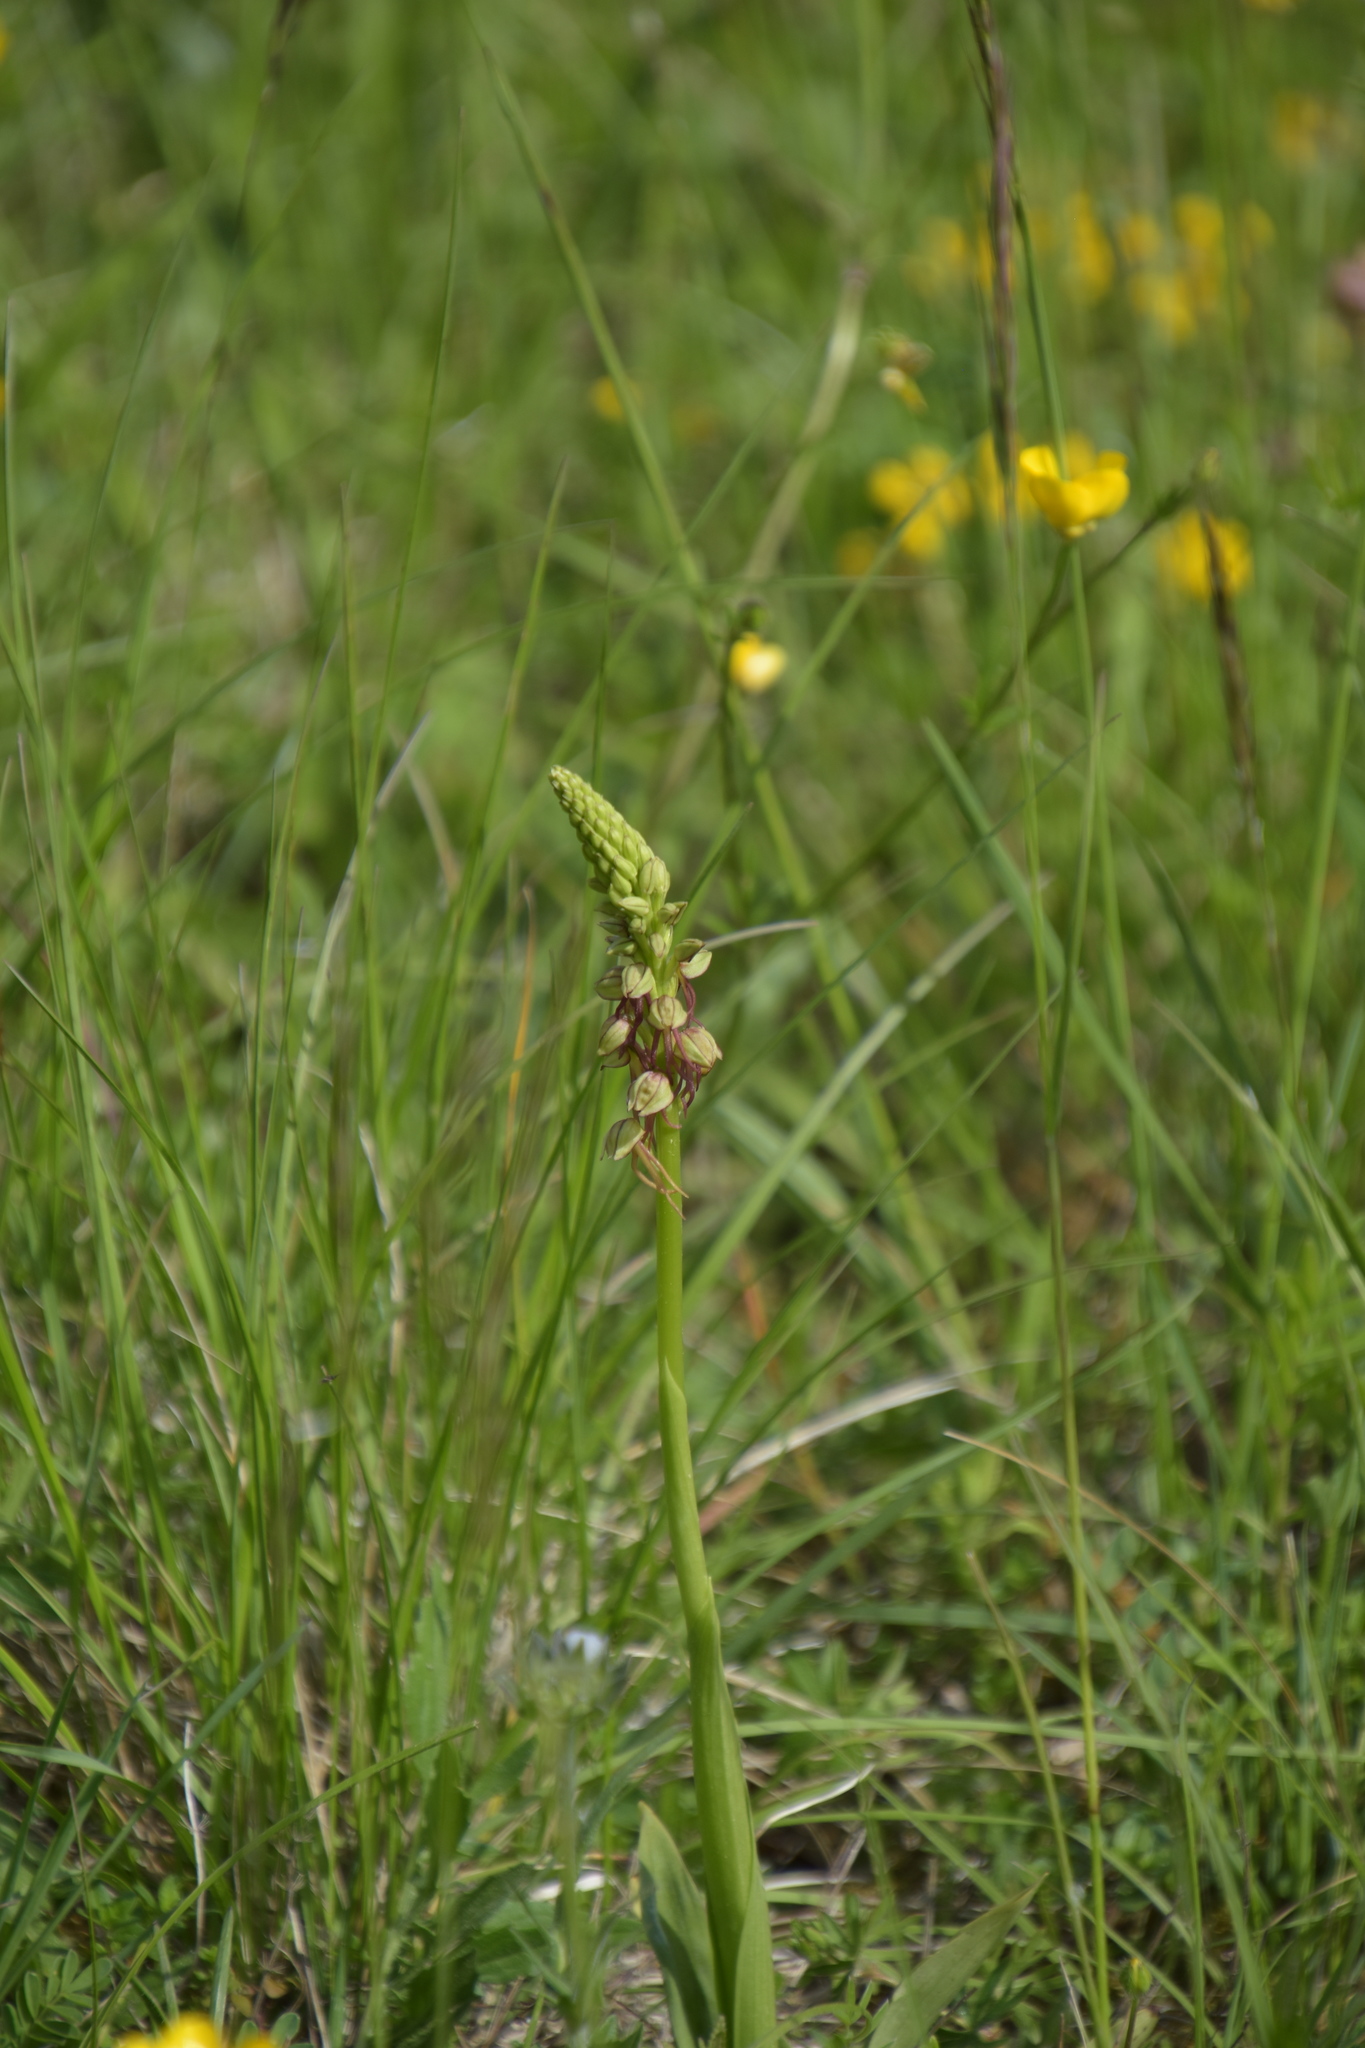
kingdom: Plantae
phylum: Tracheophyta
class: Liliopsida
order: Asparagales
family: Orchidaceae
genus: Orchis
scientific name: Orchis anthropophora
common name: Man orchid
